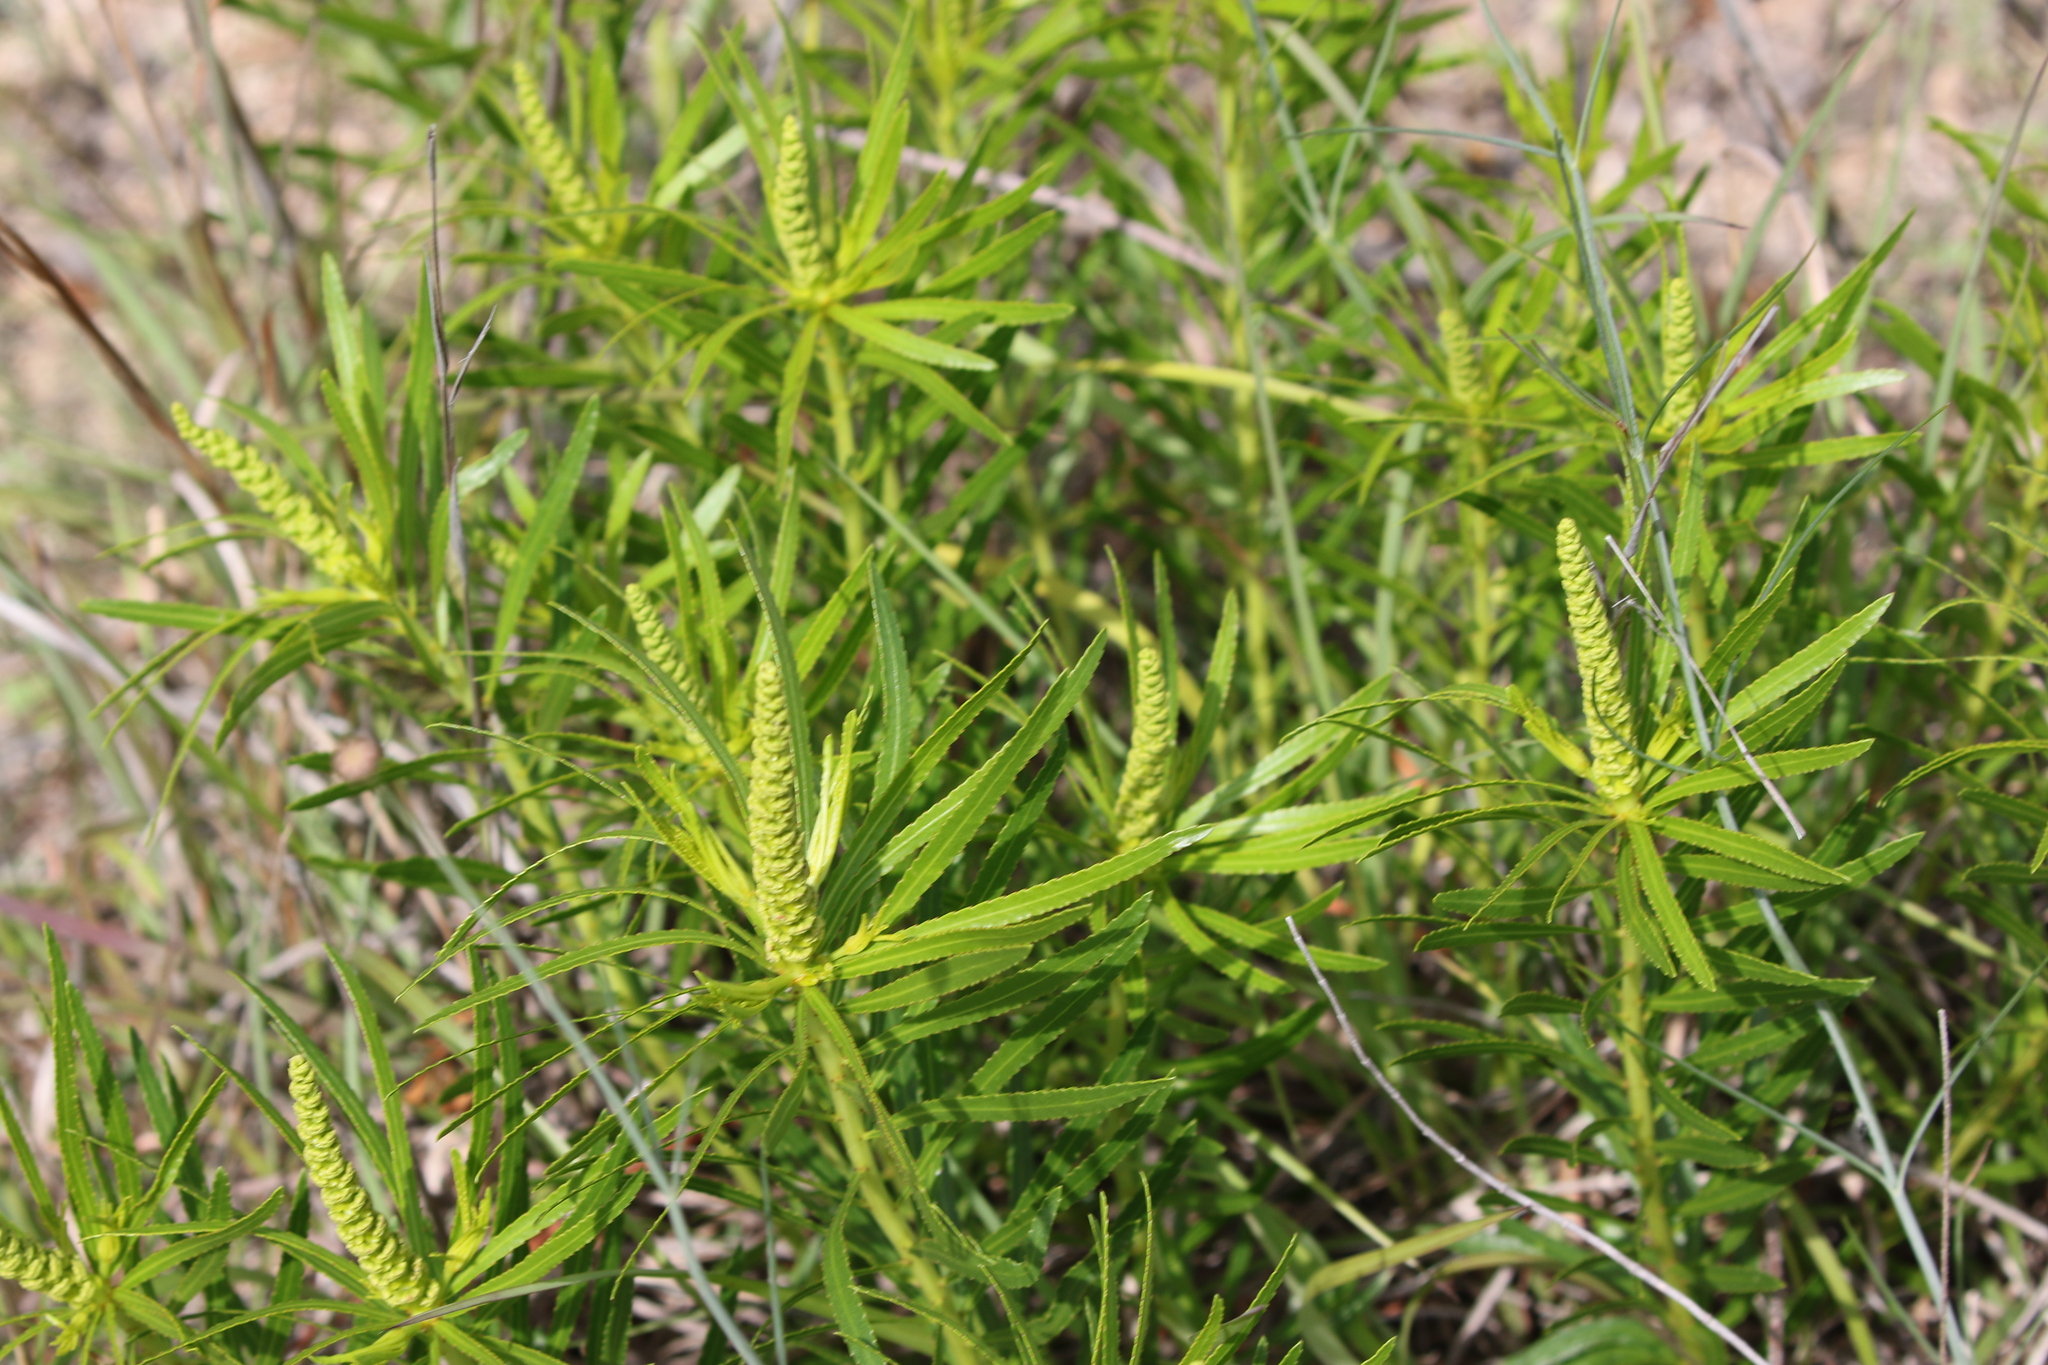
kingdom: Plantae
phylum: Tracheophyta
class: Magnoliopsida
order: Malpighiales
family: Euphorbiaceae
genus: Stillingia
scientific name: Stillingia texana
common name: Texas stillingia
